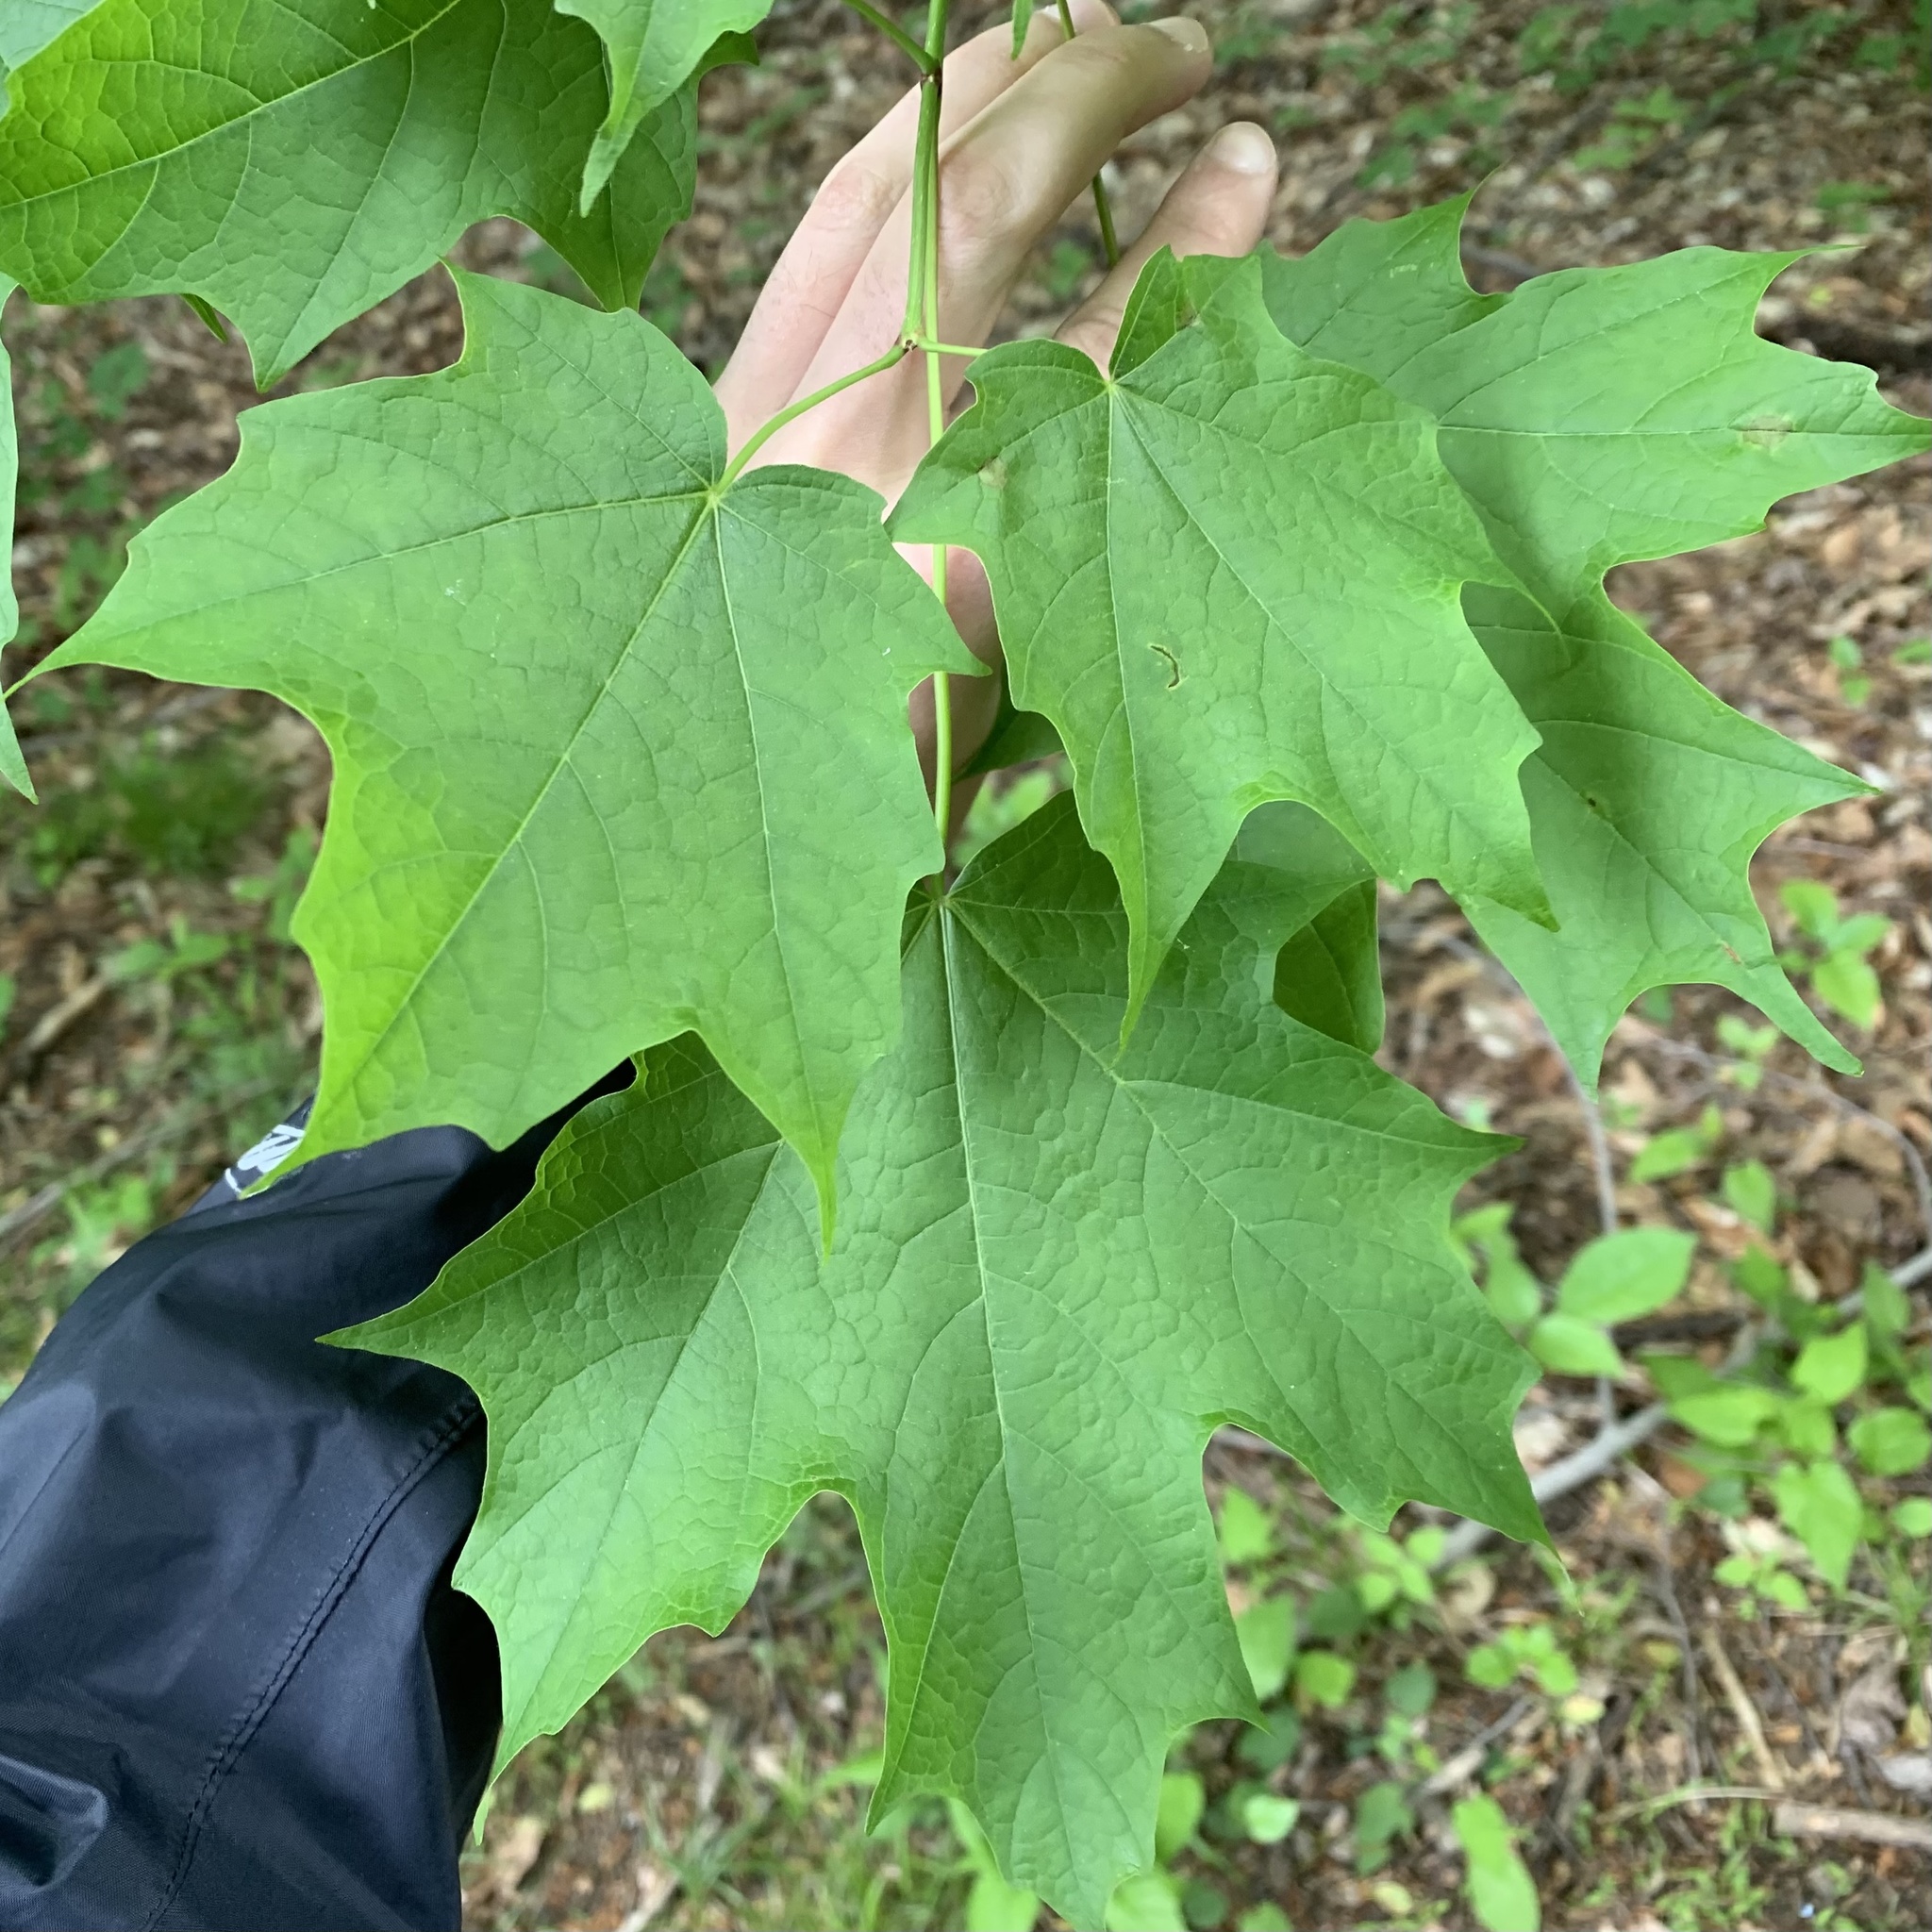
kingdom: Animalia
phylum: Arthropoda
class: Insecta
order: Diptera
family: Cecidomyiidae
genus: Dasineura
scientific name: Dasineura communis
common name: Gouty vein midge
